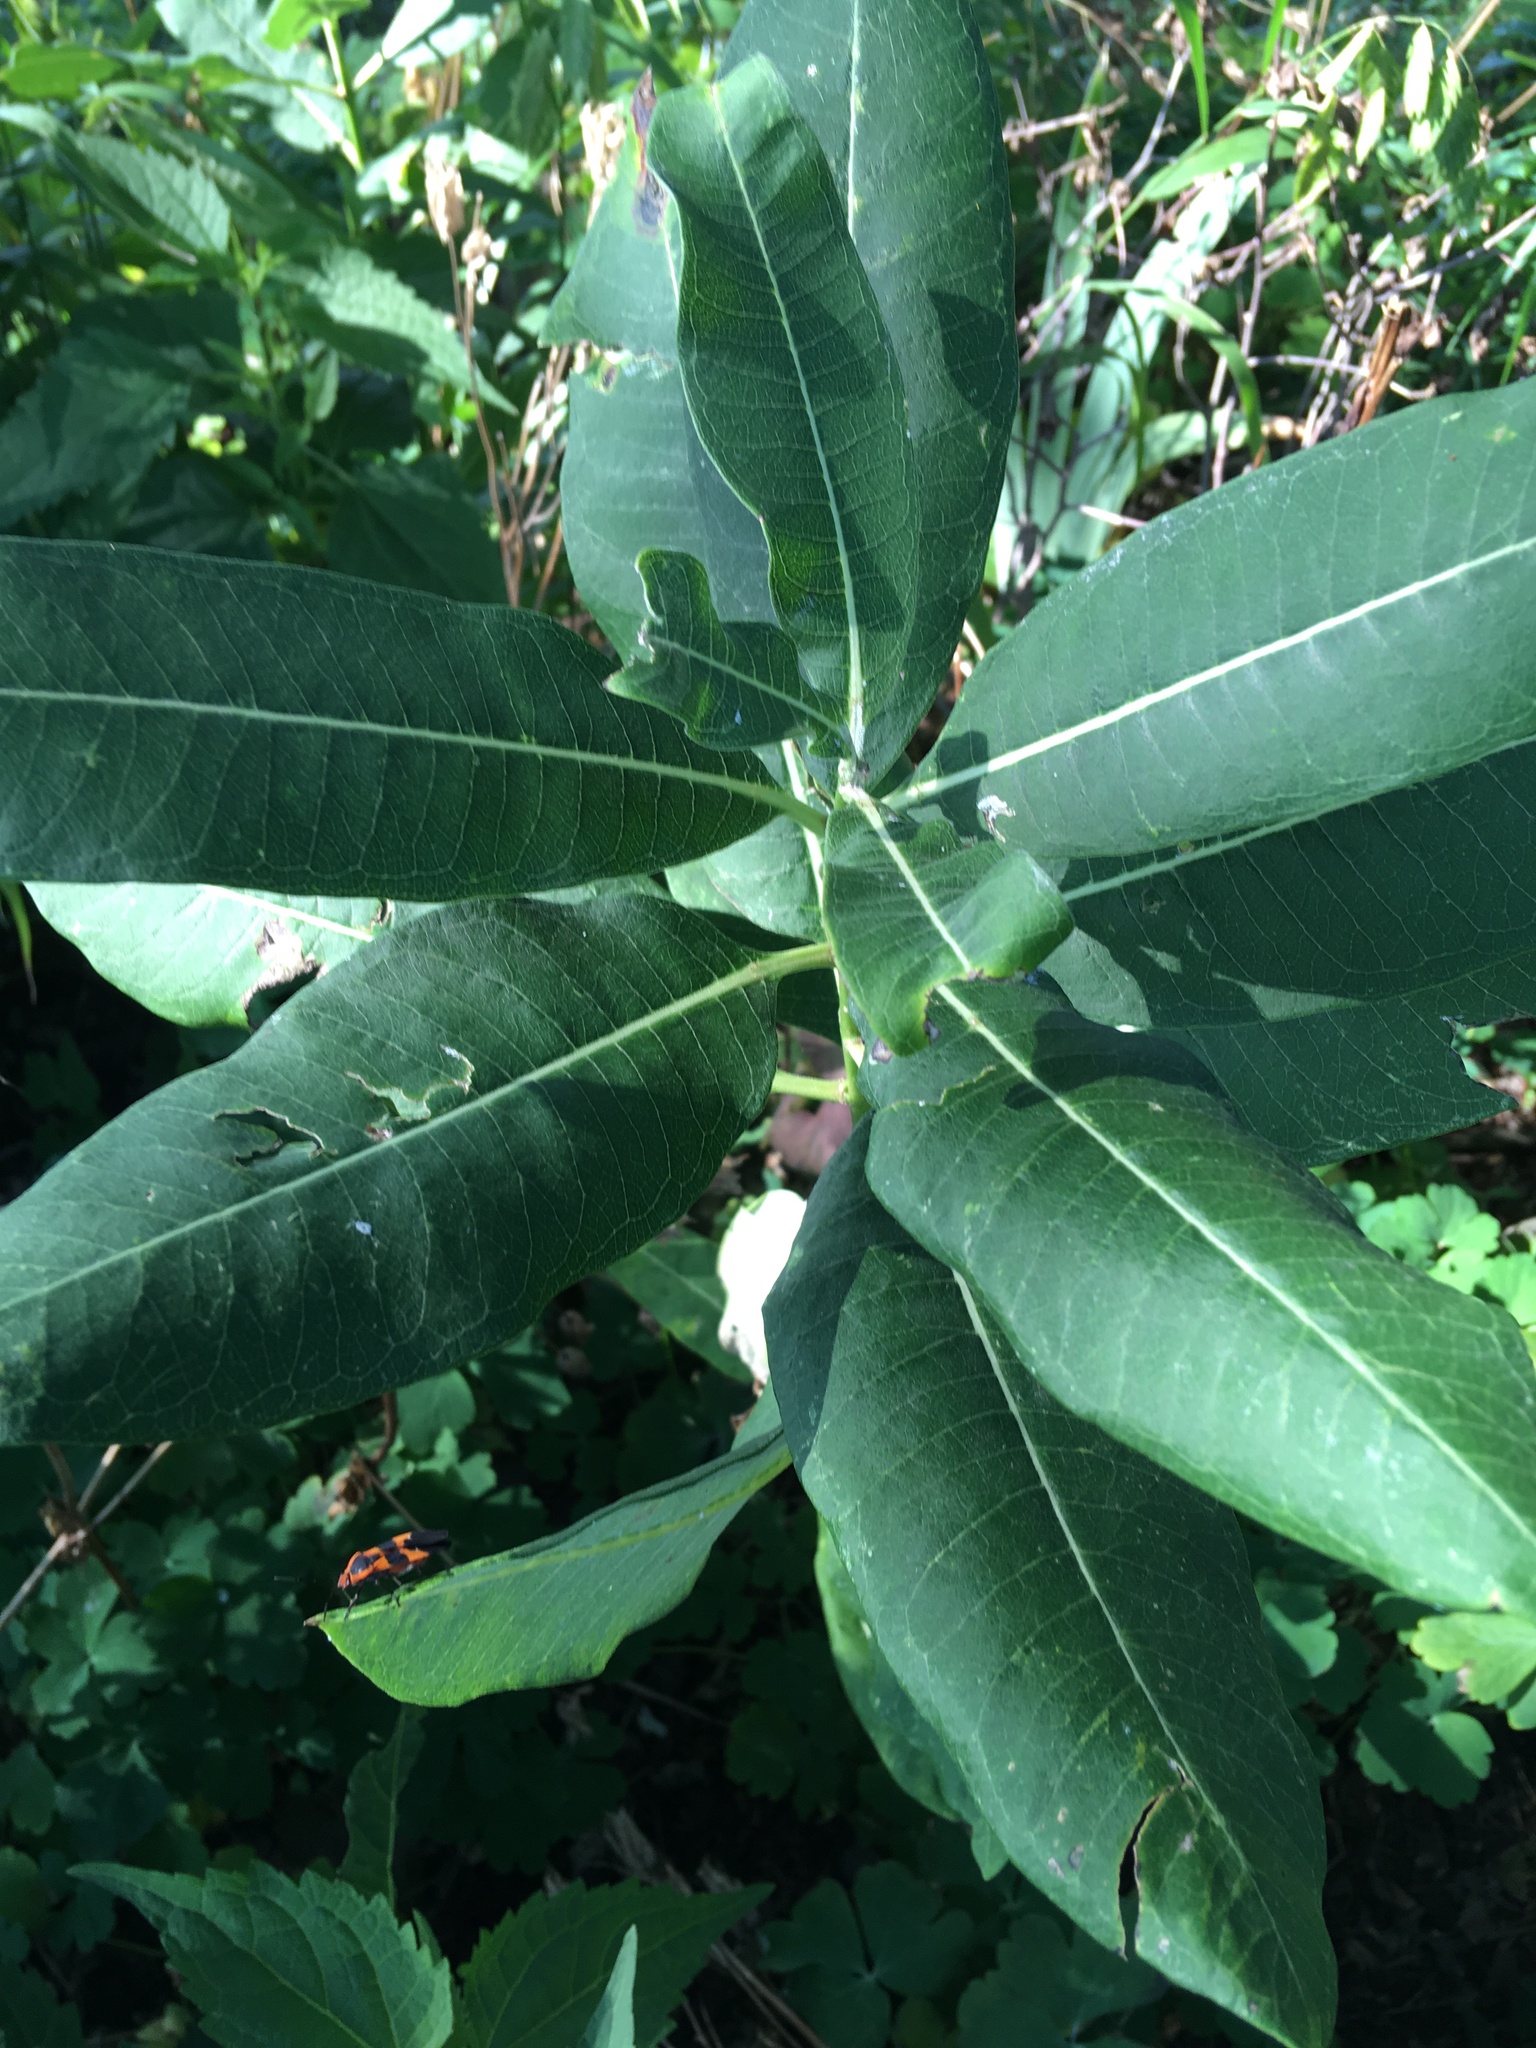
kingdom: Plantae
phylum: Tracheophyta
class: Magnoliopsida
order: Gentianales
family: Apocynaceae
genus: Asclepias
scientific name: Asclepias syriaca
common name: Common milkweed
